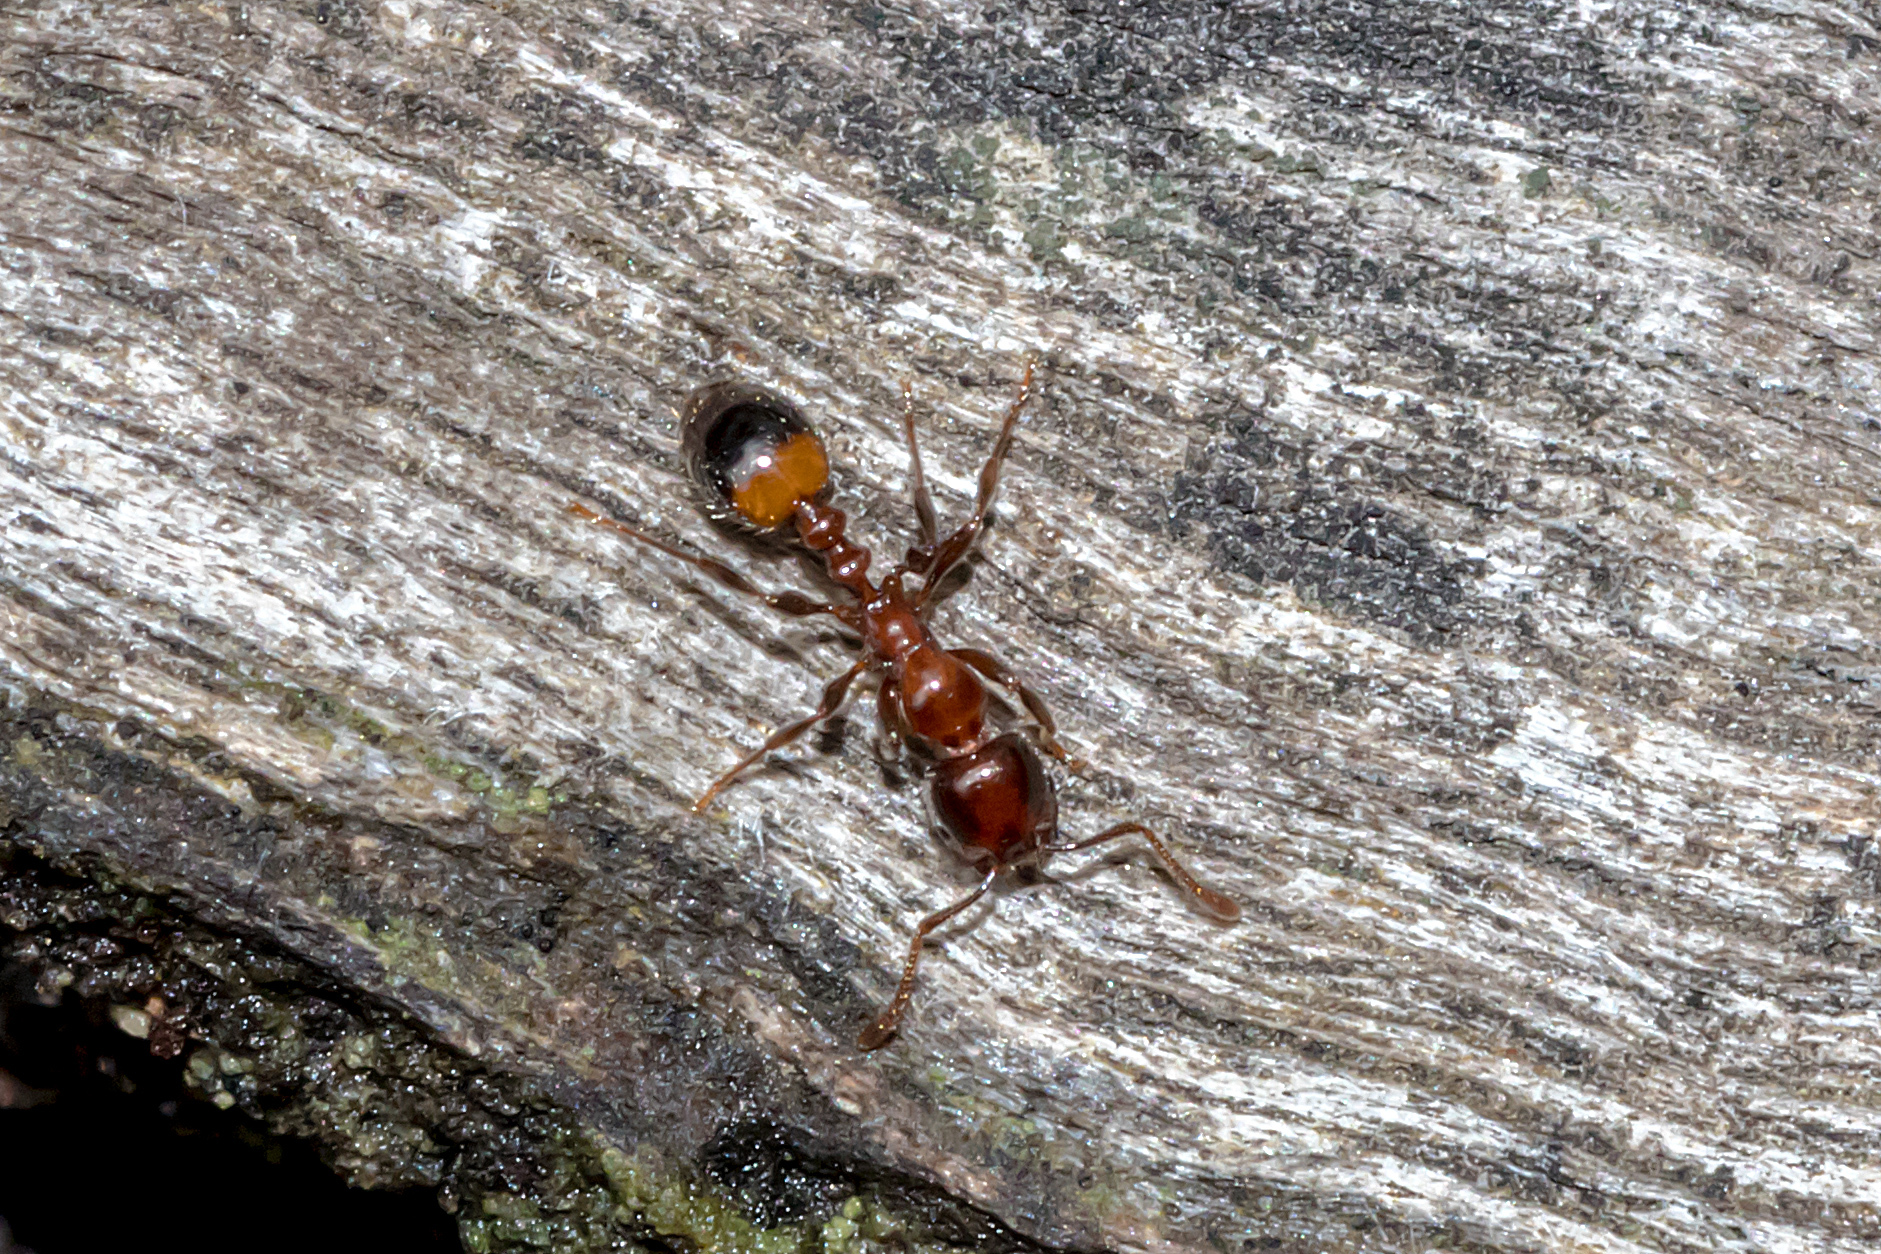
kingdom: Animalia
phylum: Arthropoda
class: Insecta
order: Hymenoptera
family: Formicidae
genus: Chelaner
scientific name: Chelaner
